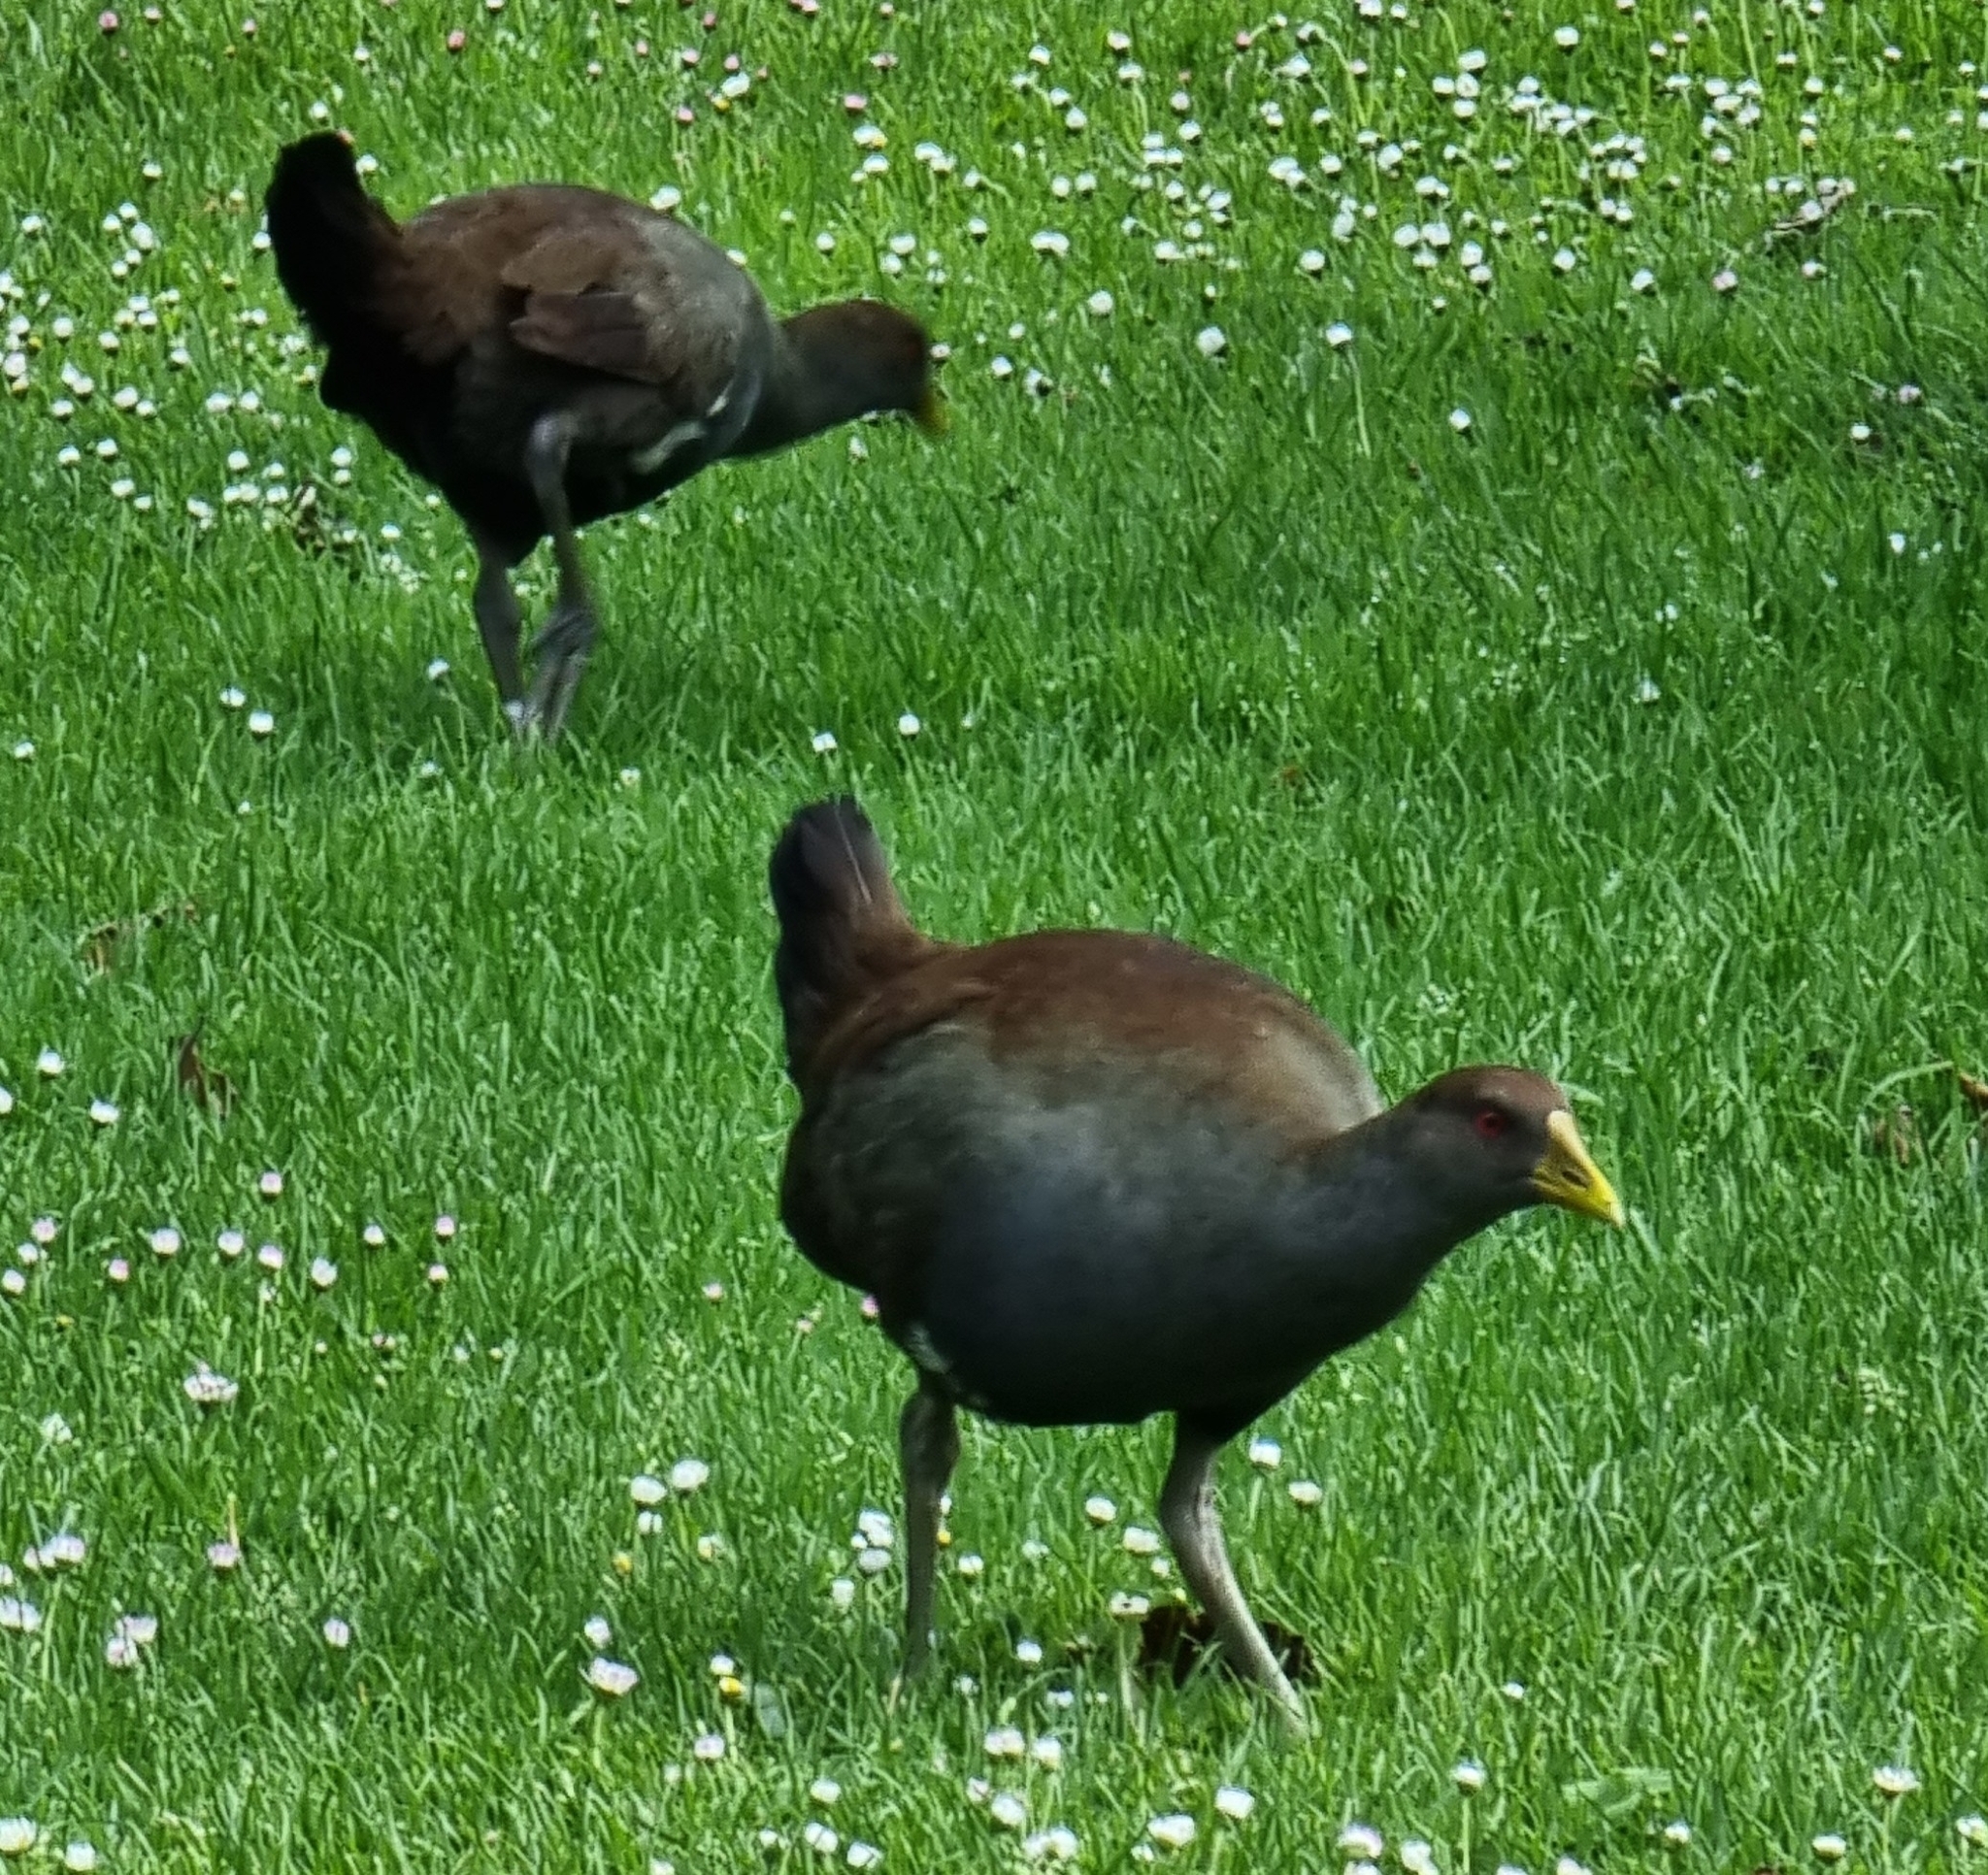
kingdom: Animalia
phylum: Chordata
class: Aves
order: Gruiformes
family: Rallidae
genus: Gallinula
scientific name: Gallinula mortierii
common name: Tasmanian nativehen
